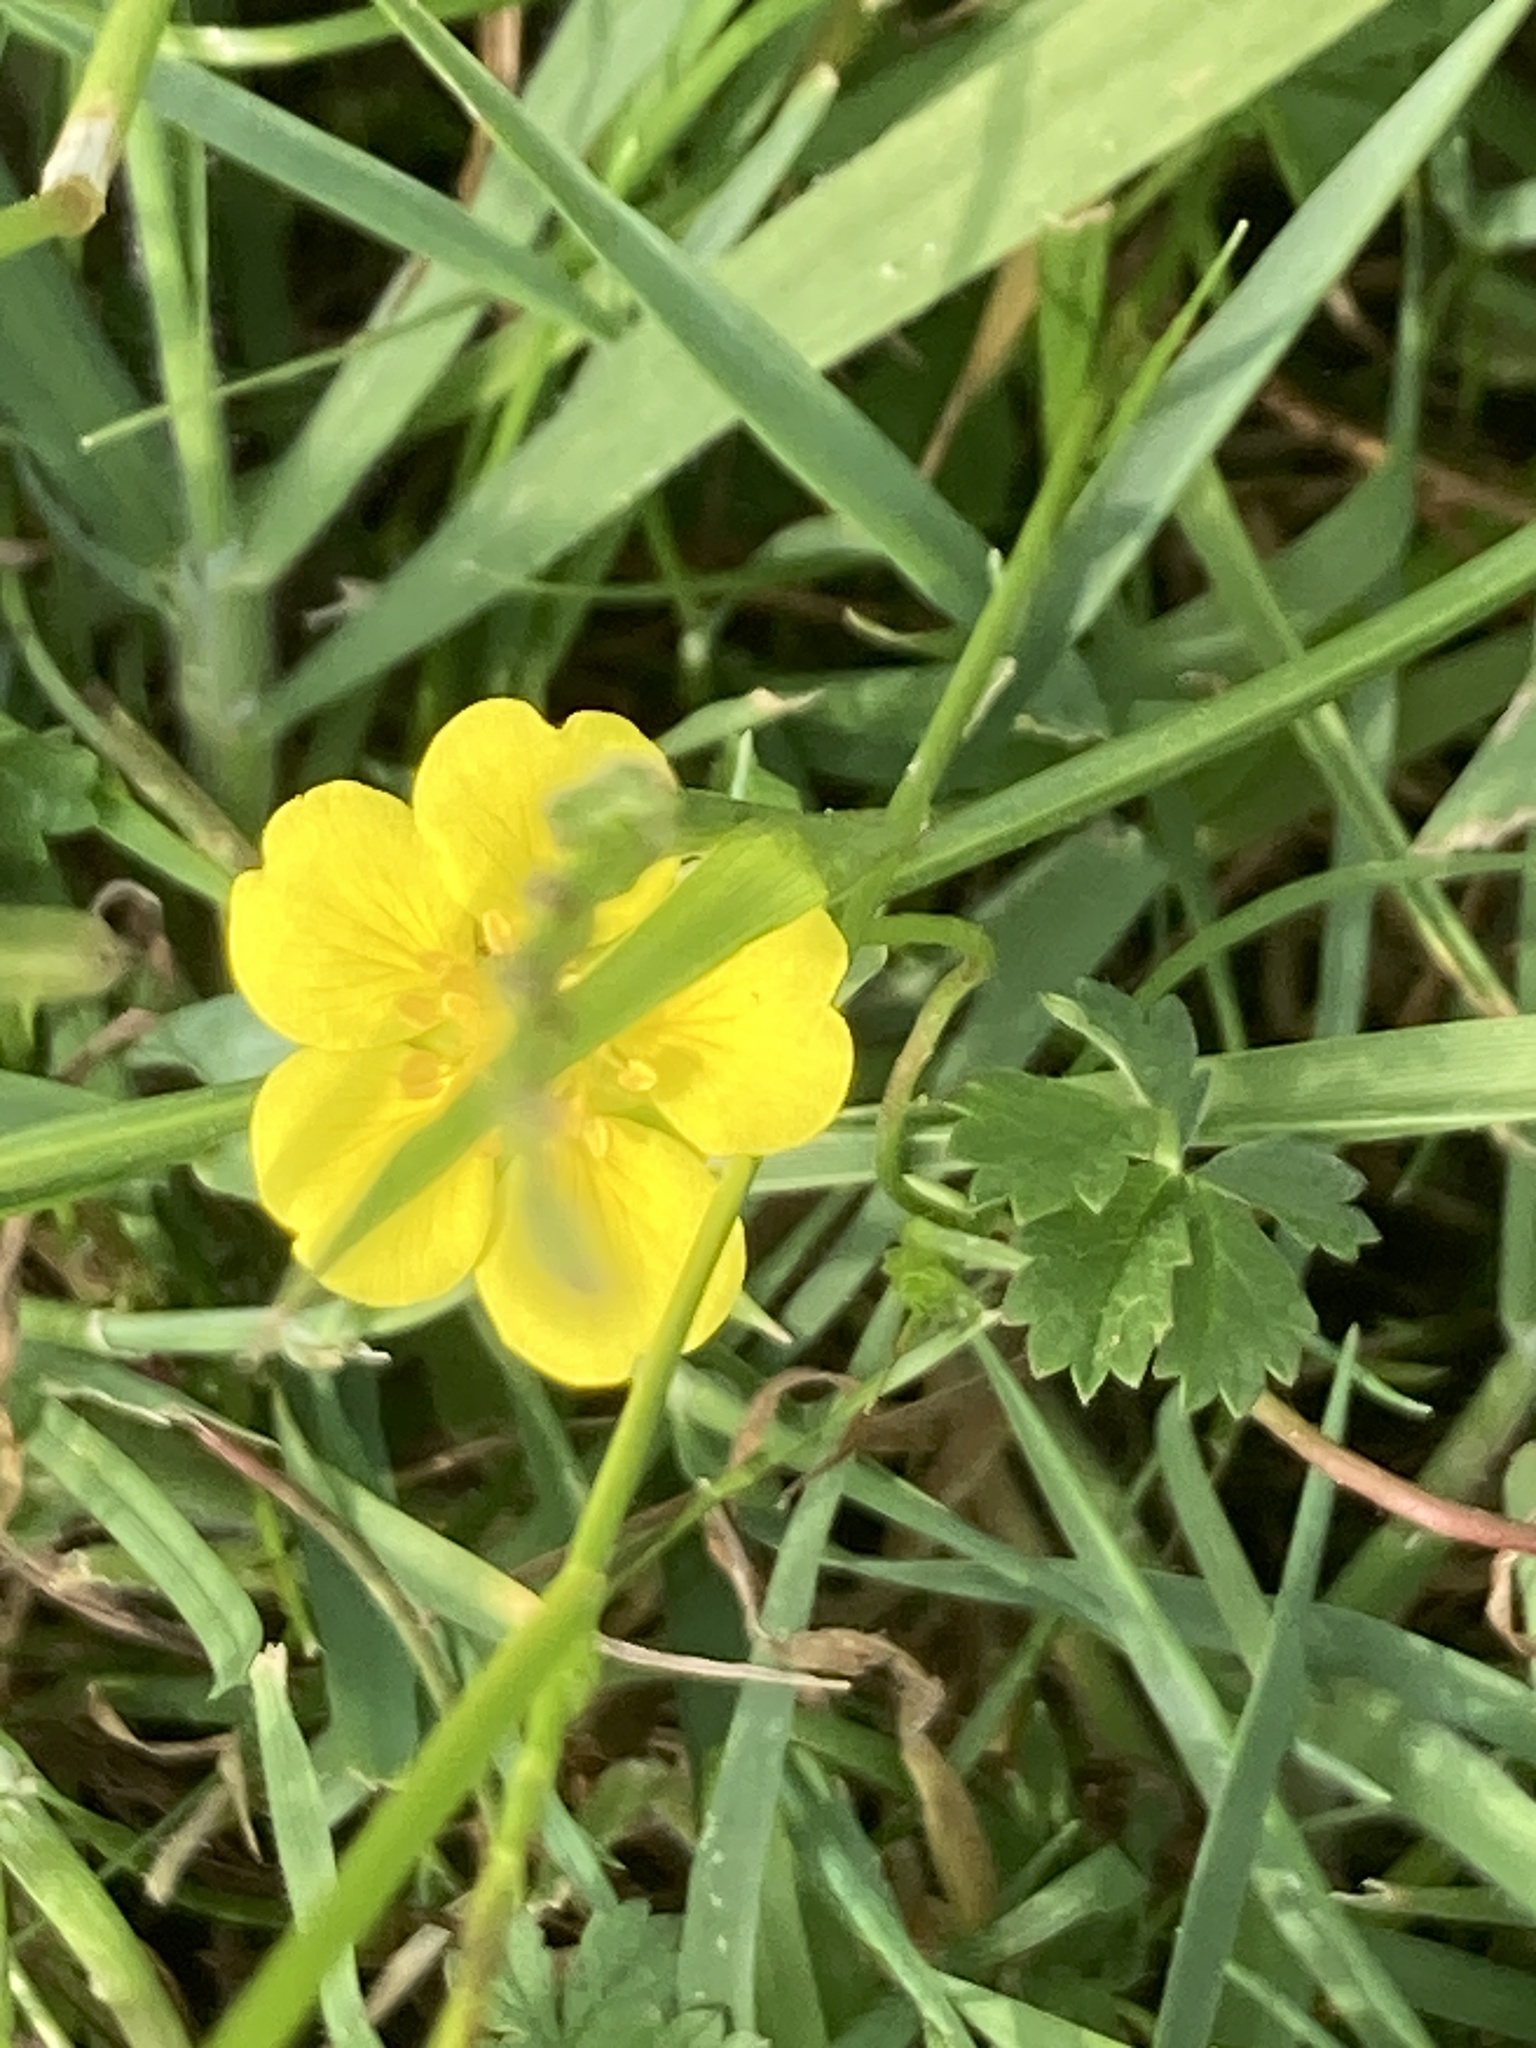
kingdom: Plantae
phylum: Tracheophyta
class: Magnoliopsida
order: Rosales
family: Rosaceae
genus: Potentilla
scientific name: Potentilla reptans
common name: Creeping cinquefoil
